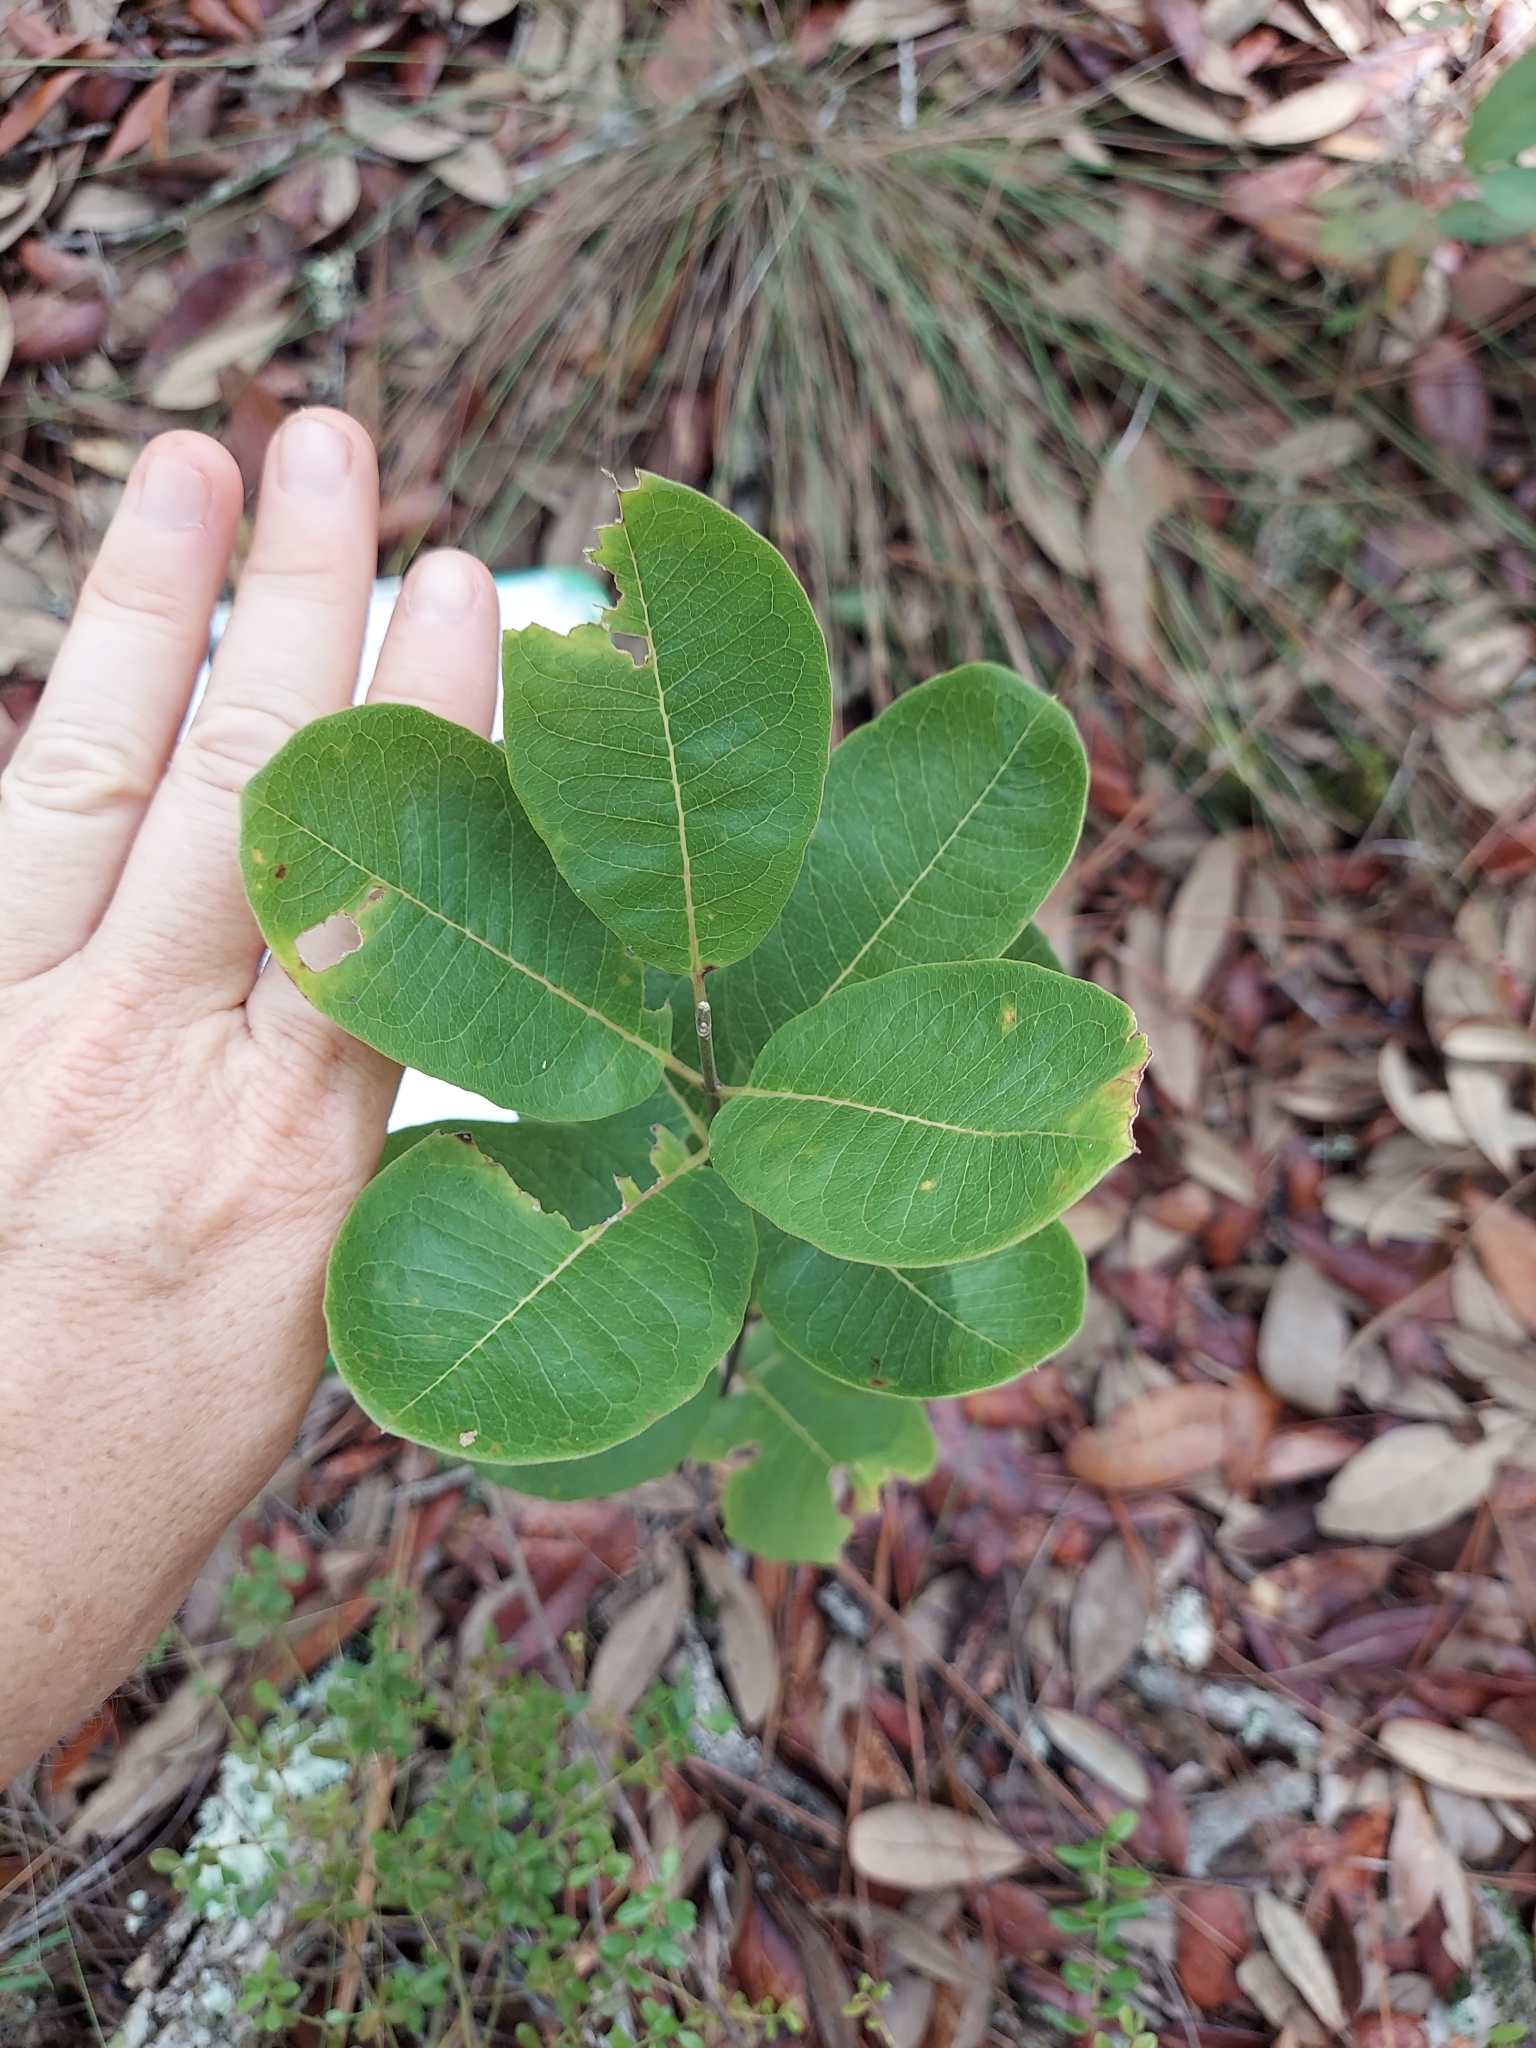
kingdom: Plantae
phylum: Tracheophyta
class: Magnoliopsida
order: Gentianales
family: Apocynaceae
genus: Asclepias
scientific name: Asclepias tomentosa
